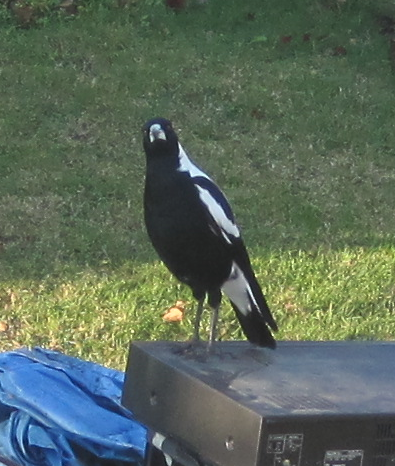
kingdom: Animalia
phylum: Chordata
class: Aves
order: Passeriformes
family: Cracticidae
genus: Gymnorhina
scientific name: Gymnorhina tibicen
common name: Australian magpie
